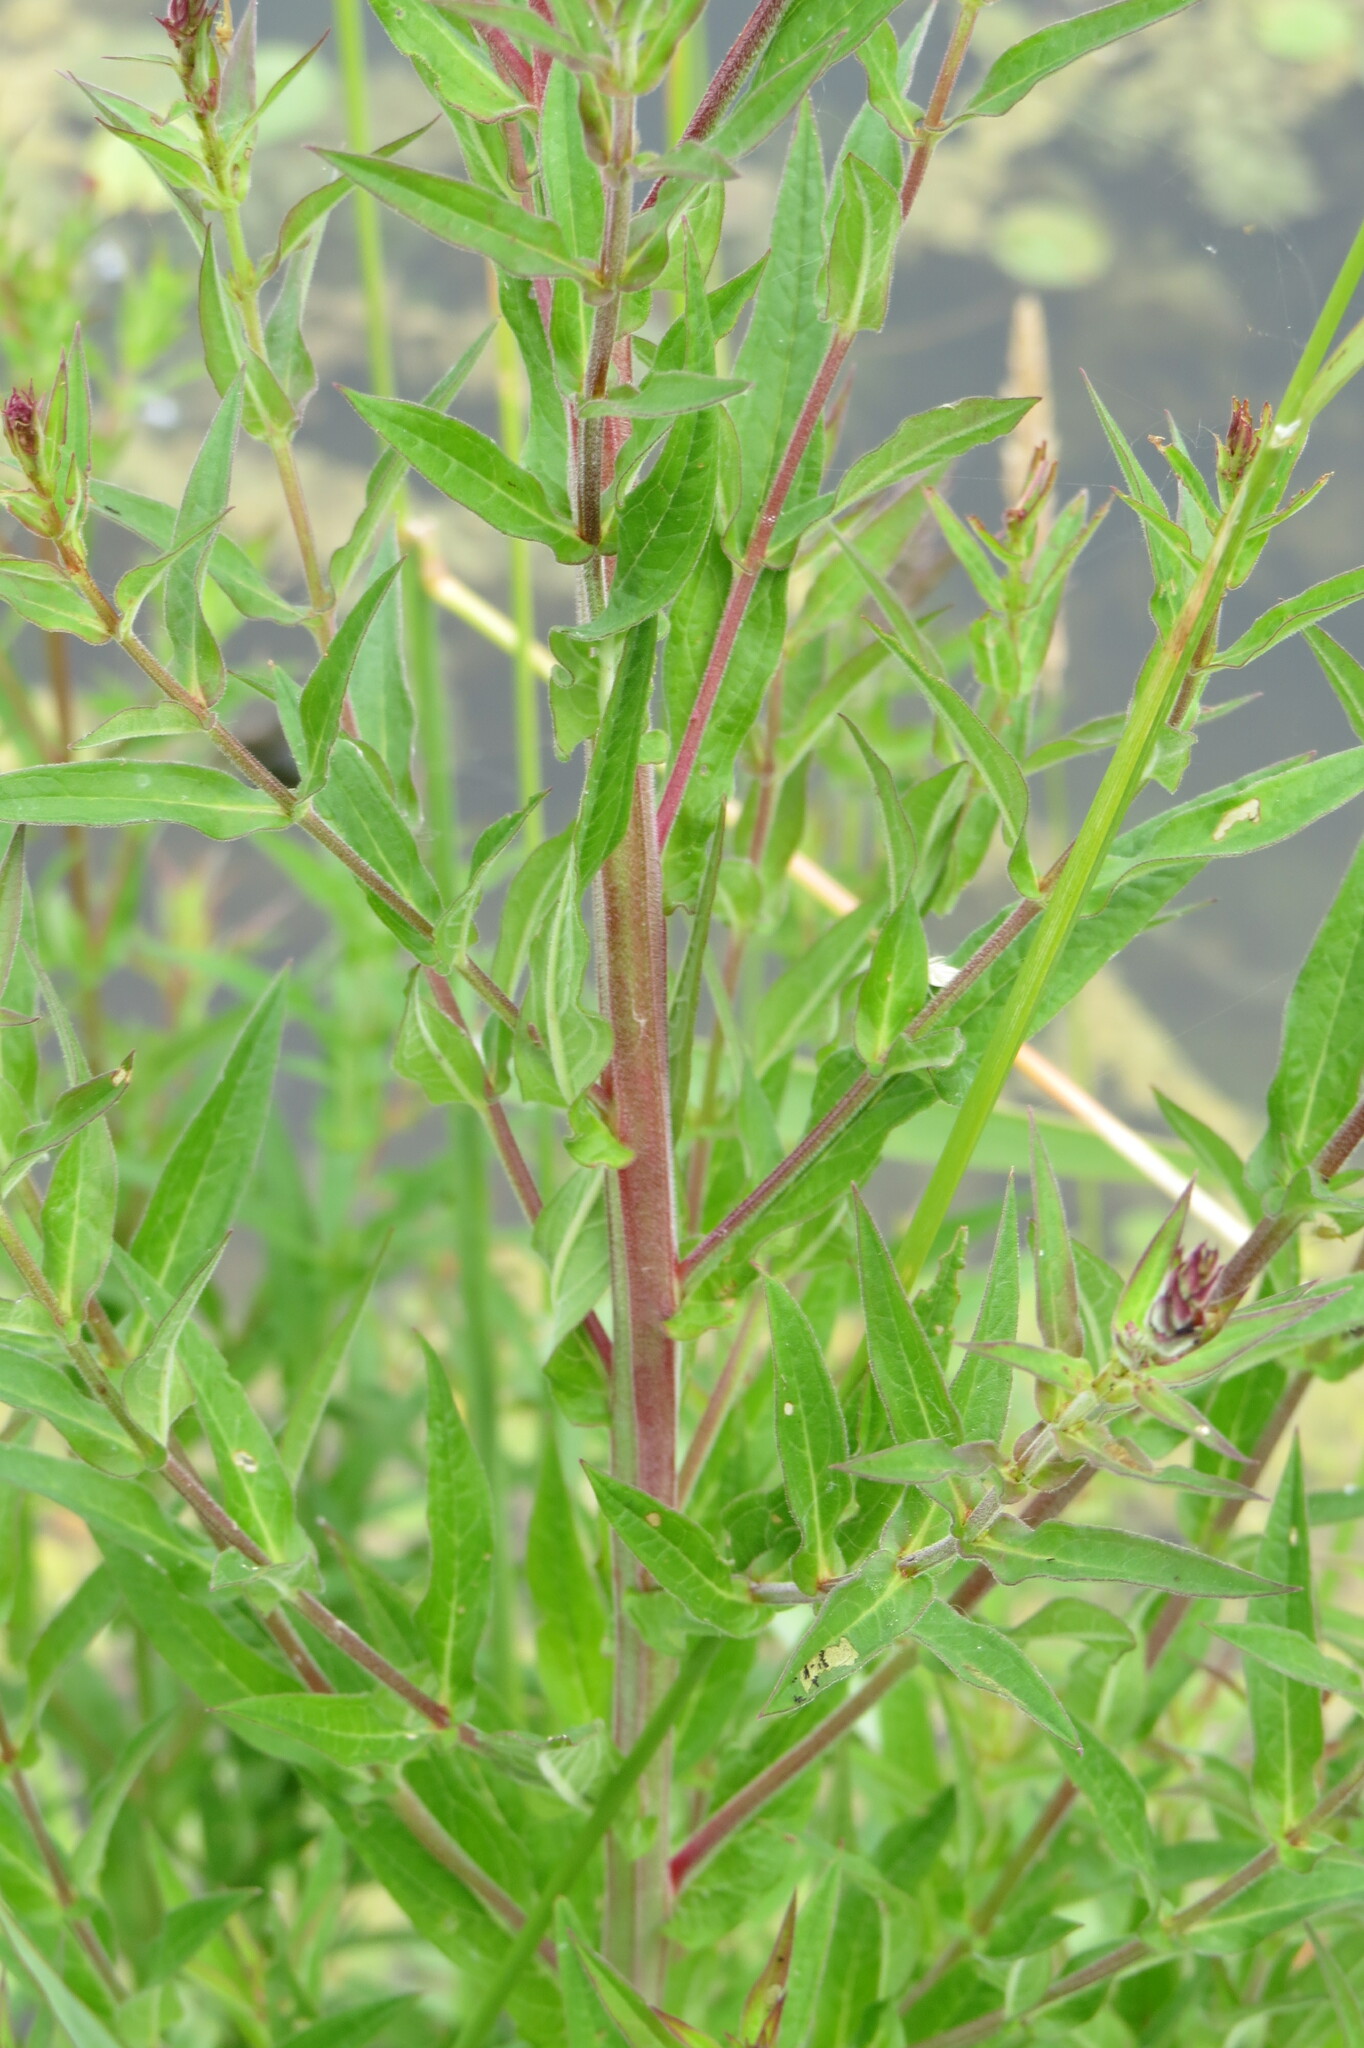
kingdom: Plantae
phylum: Tracheophyta
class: Magnoliopsida
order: Myrtales
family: Lythraceae
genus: Lythrum
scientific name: Lythrum salicaria
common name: Purple loosestrife
